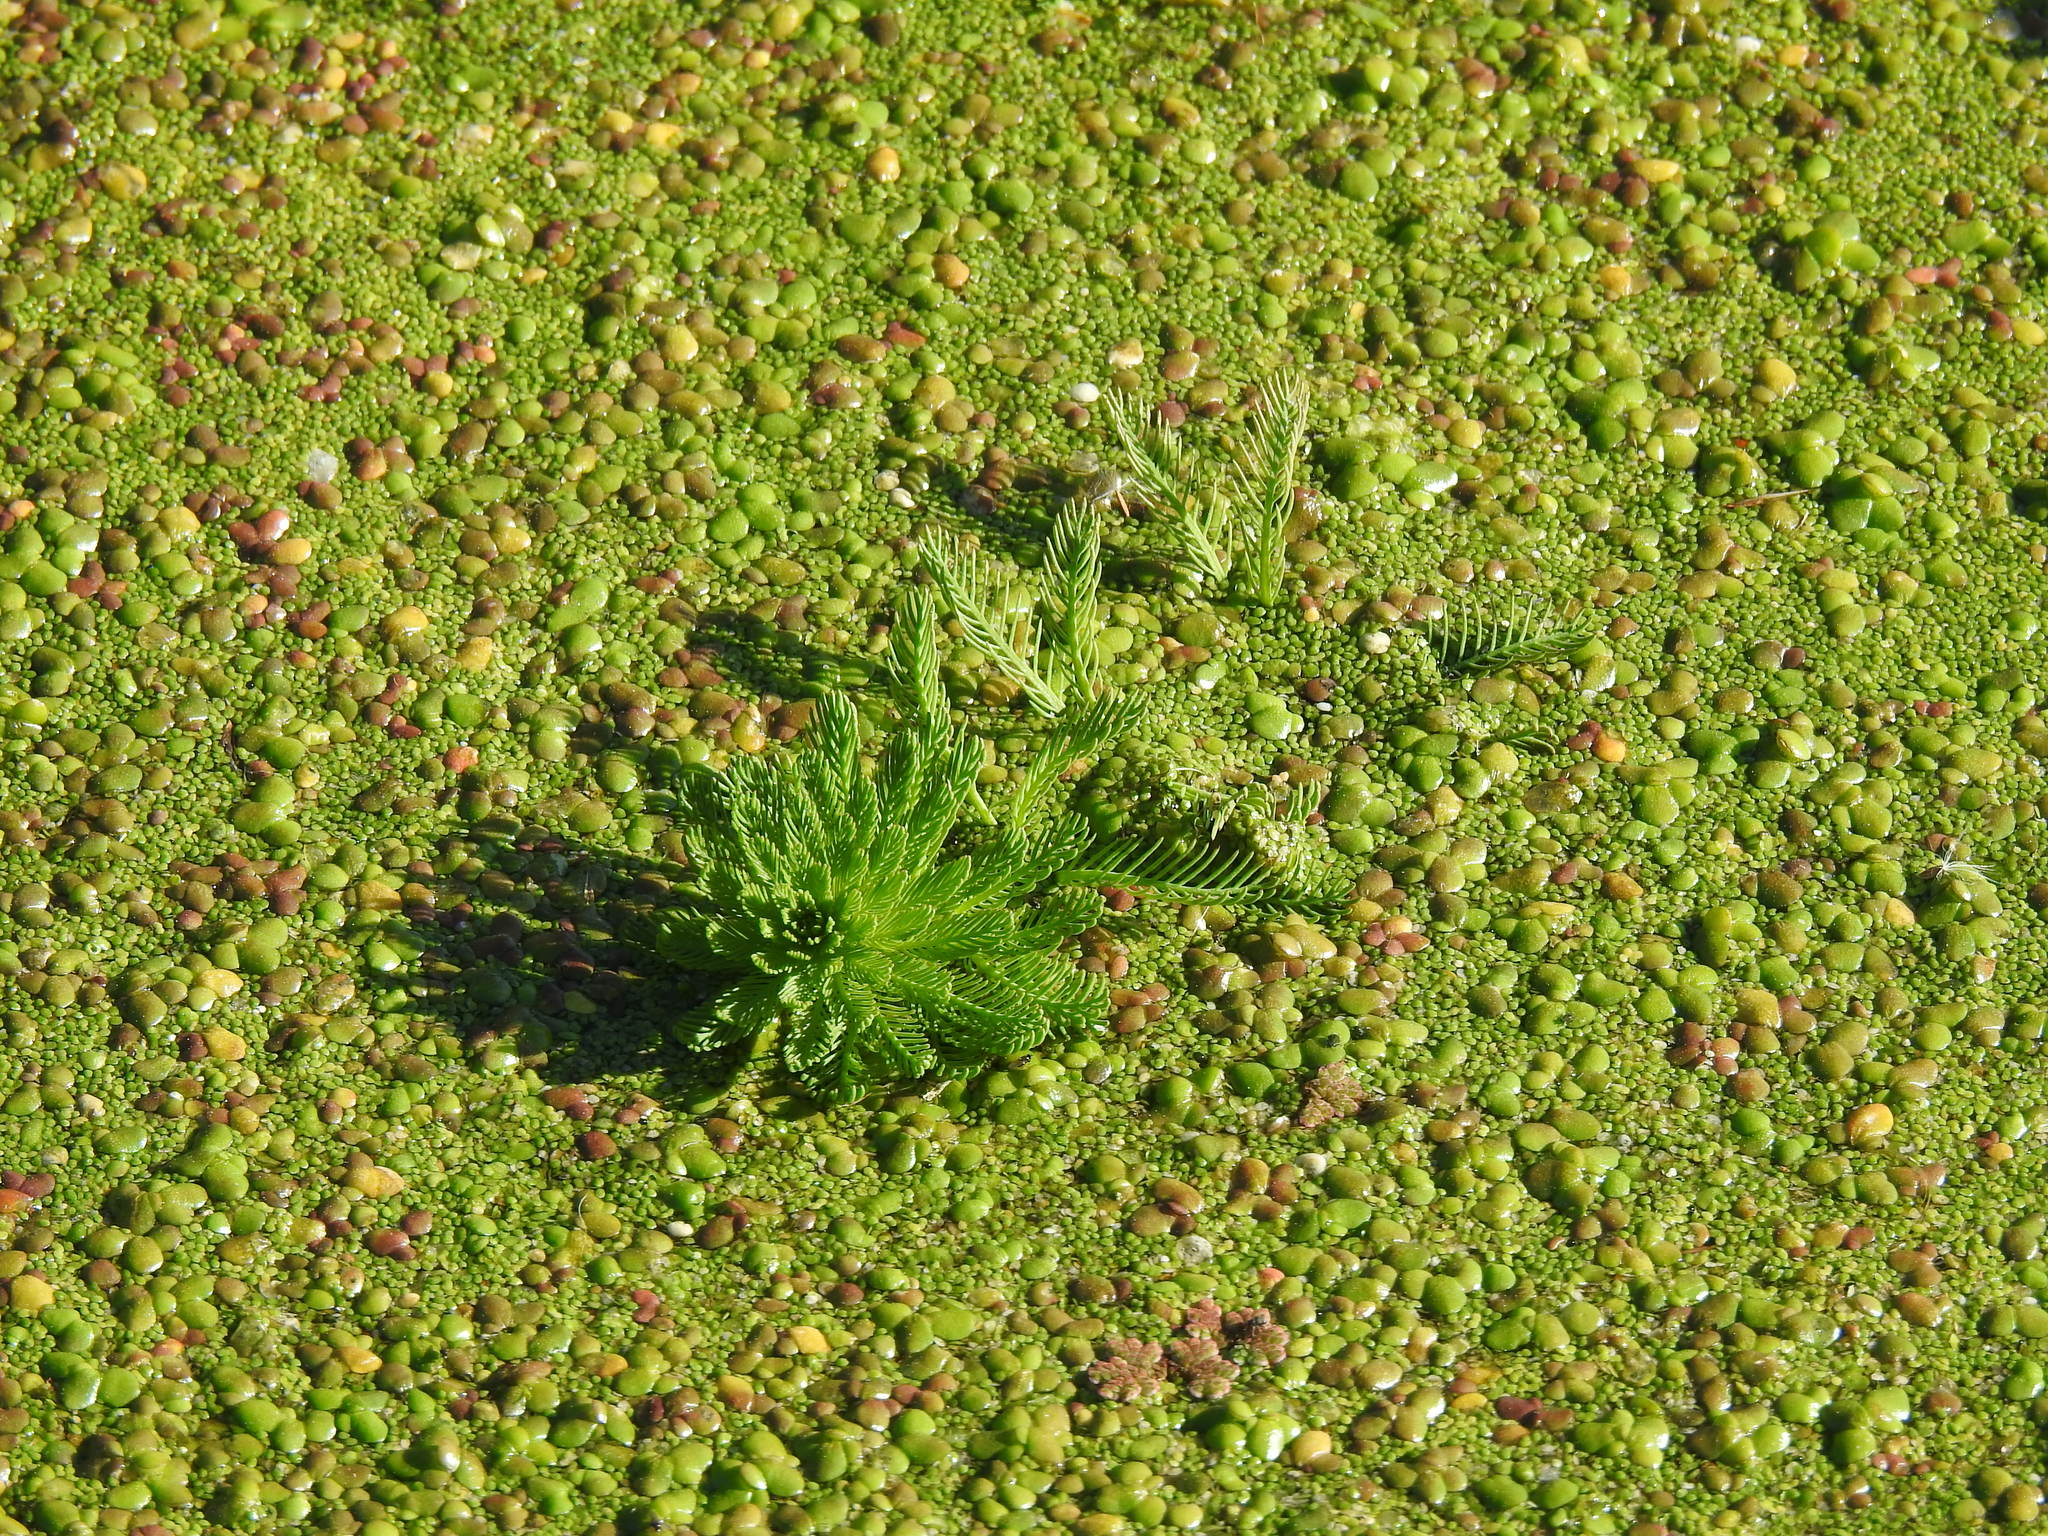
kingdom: Plantae
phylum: Tracheophyta
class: Magnoliopsida
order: Saxifragales
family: Haloragaceae
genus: Myriophyllum
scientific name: Myriophyllum aquaticum
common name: Parrot's feather
